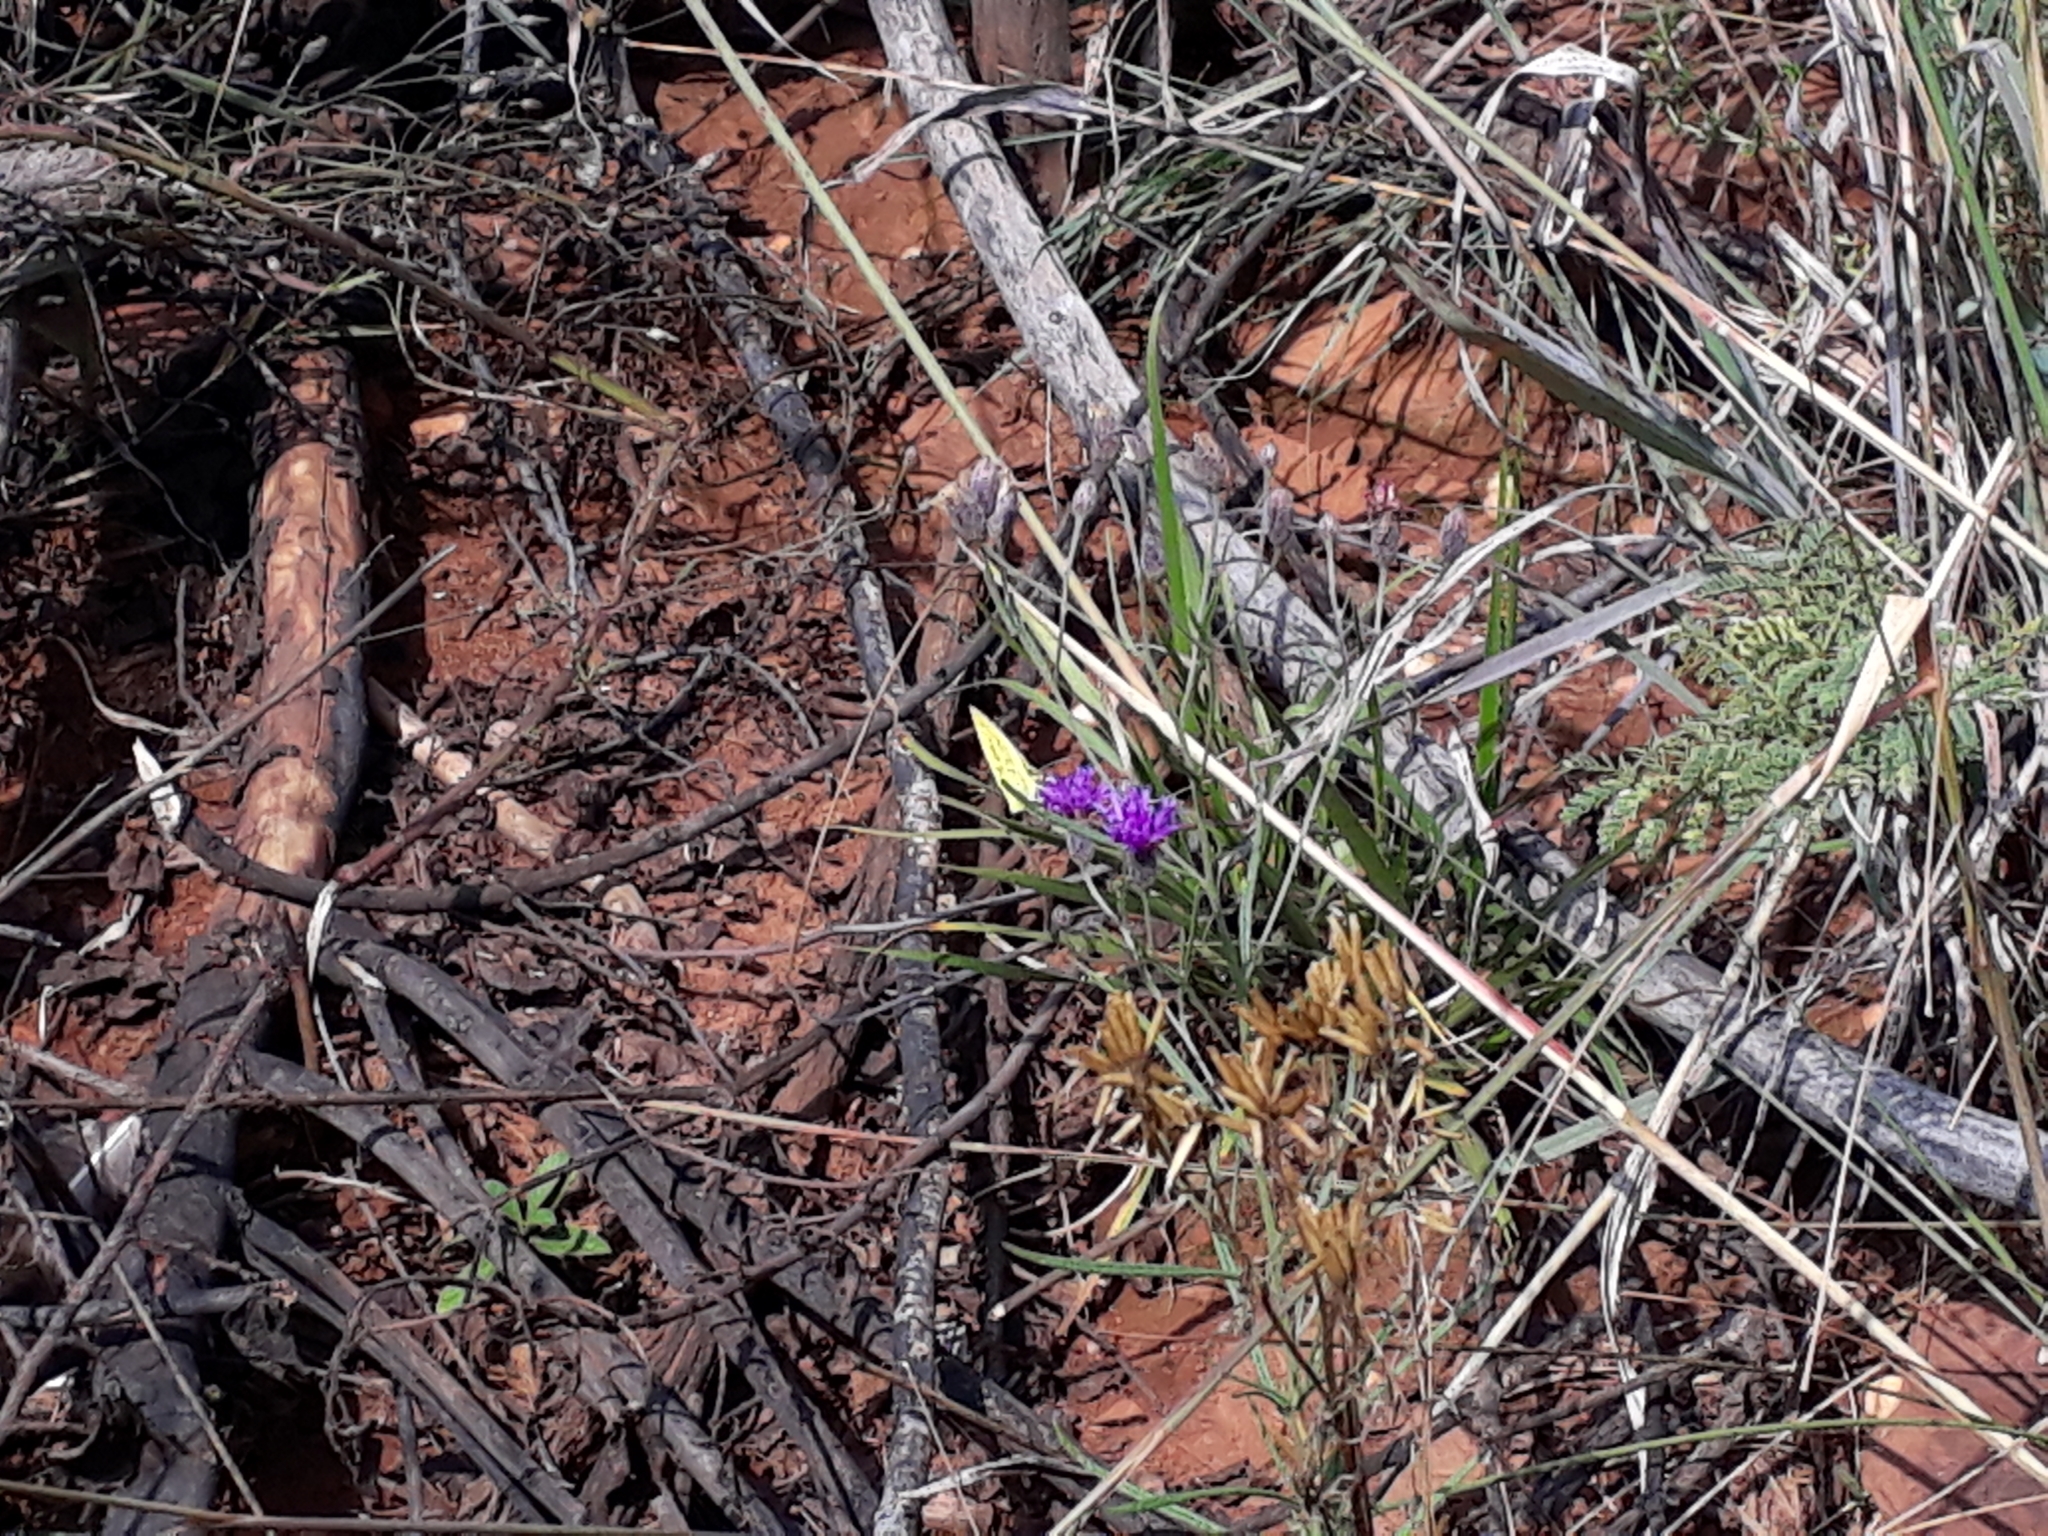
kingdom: Plantae
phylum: Tracheophyta
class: Magnoliopsida
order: Asterales
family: Asteraceae
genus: Crystallopollen
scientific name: Crystallopollen angustifolium
